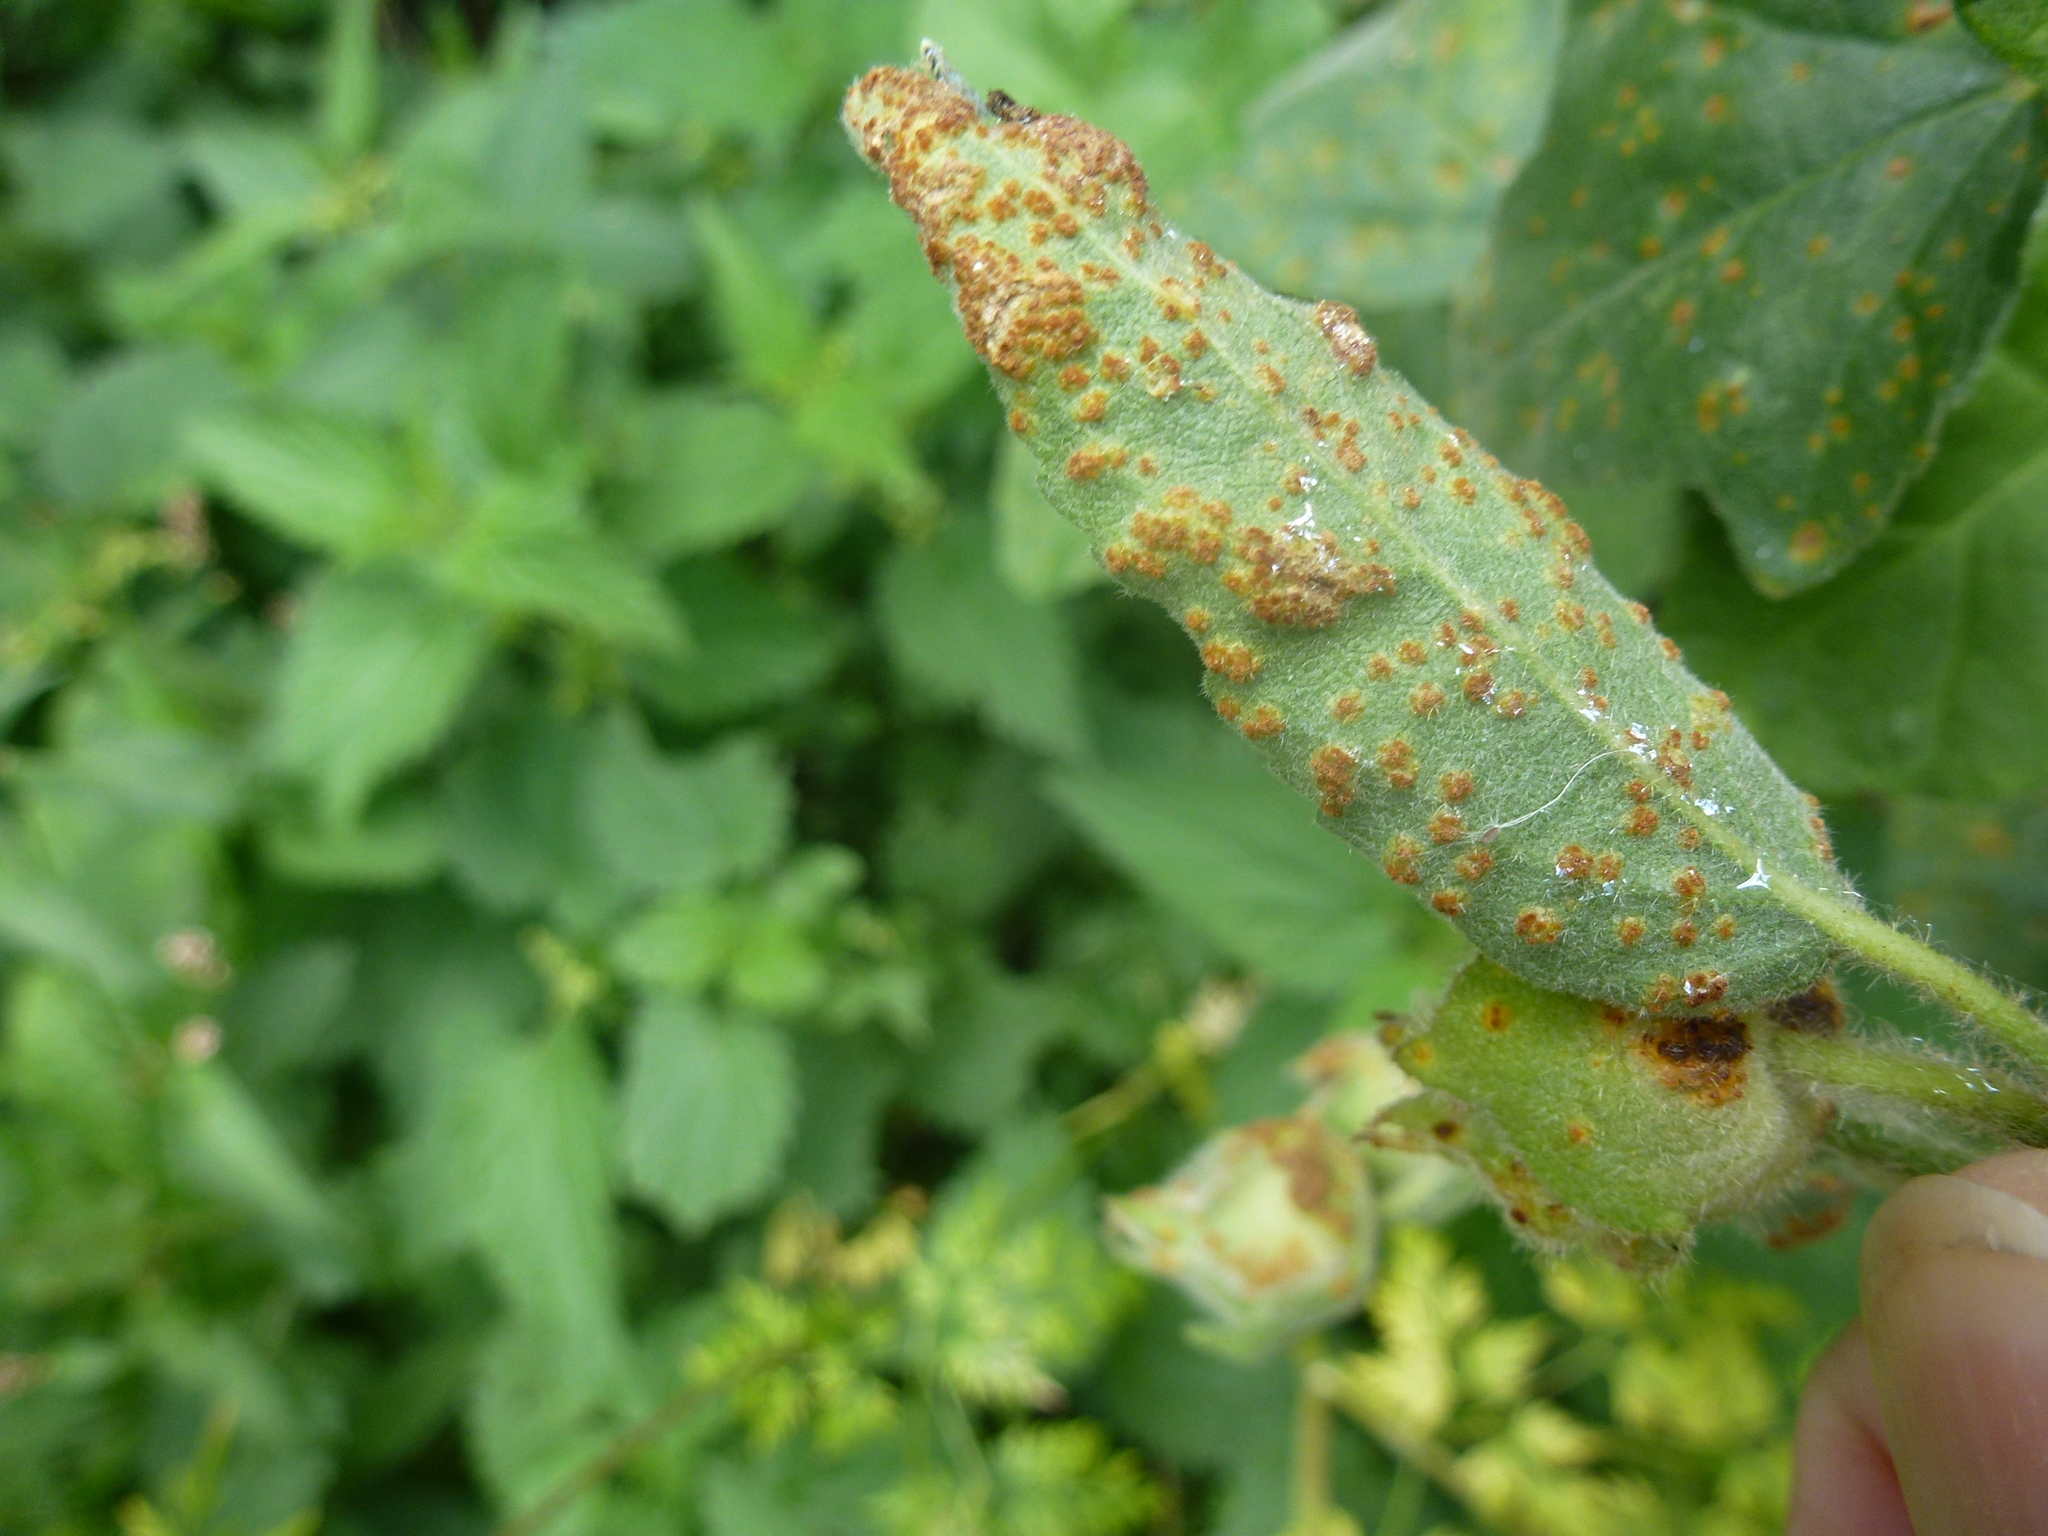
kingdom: Fungi
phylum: Basidiomycota
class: Pucciniomycetes
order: Pucciniales
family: Pucciniaceae
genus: Puccinia
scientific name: Puccinia malvacearum
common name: Hollyhock rust
